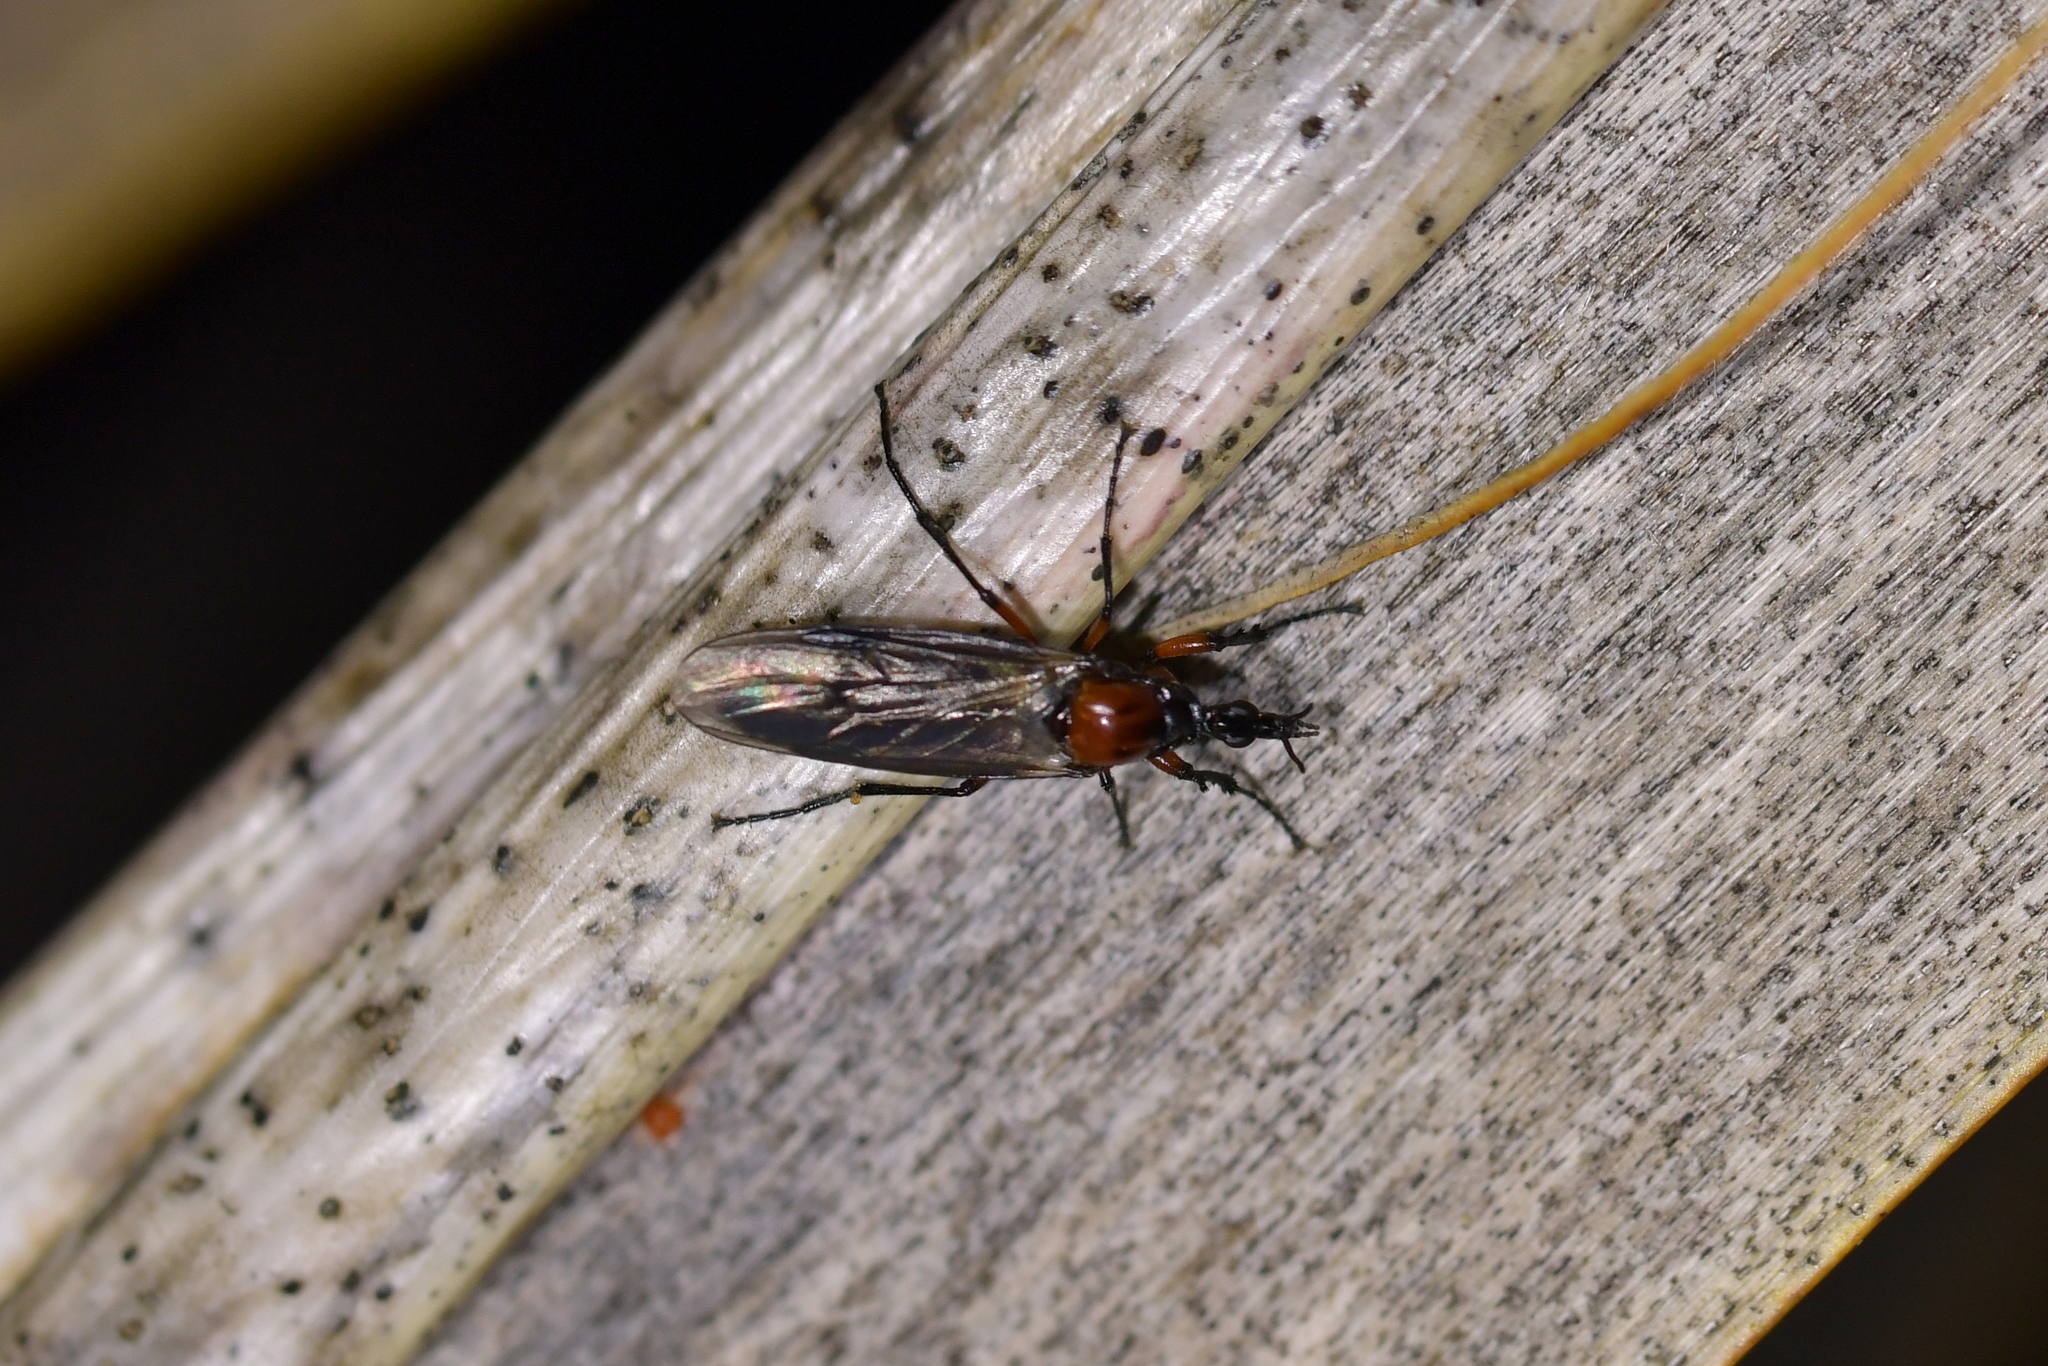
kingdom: Animalia
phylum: Arthropoda
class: Insecta
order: Diptera
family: Bibionidae
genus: Dilophus
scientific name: Dilophus nigrostigma
